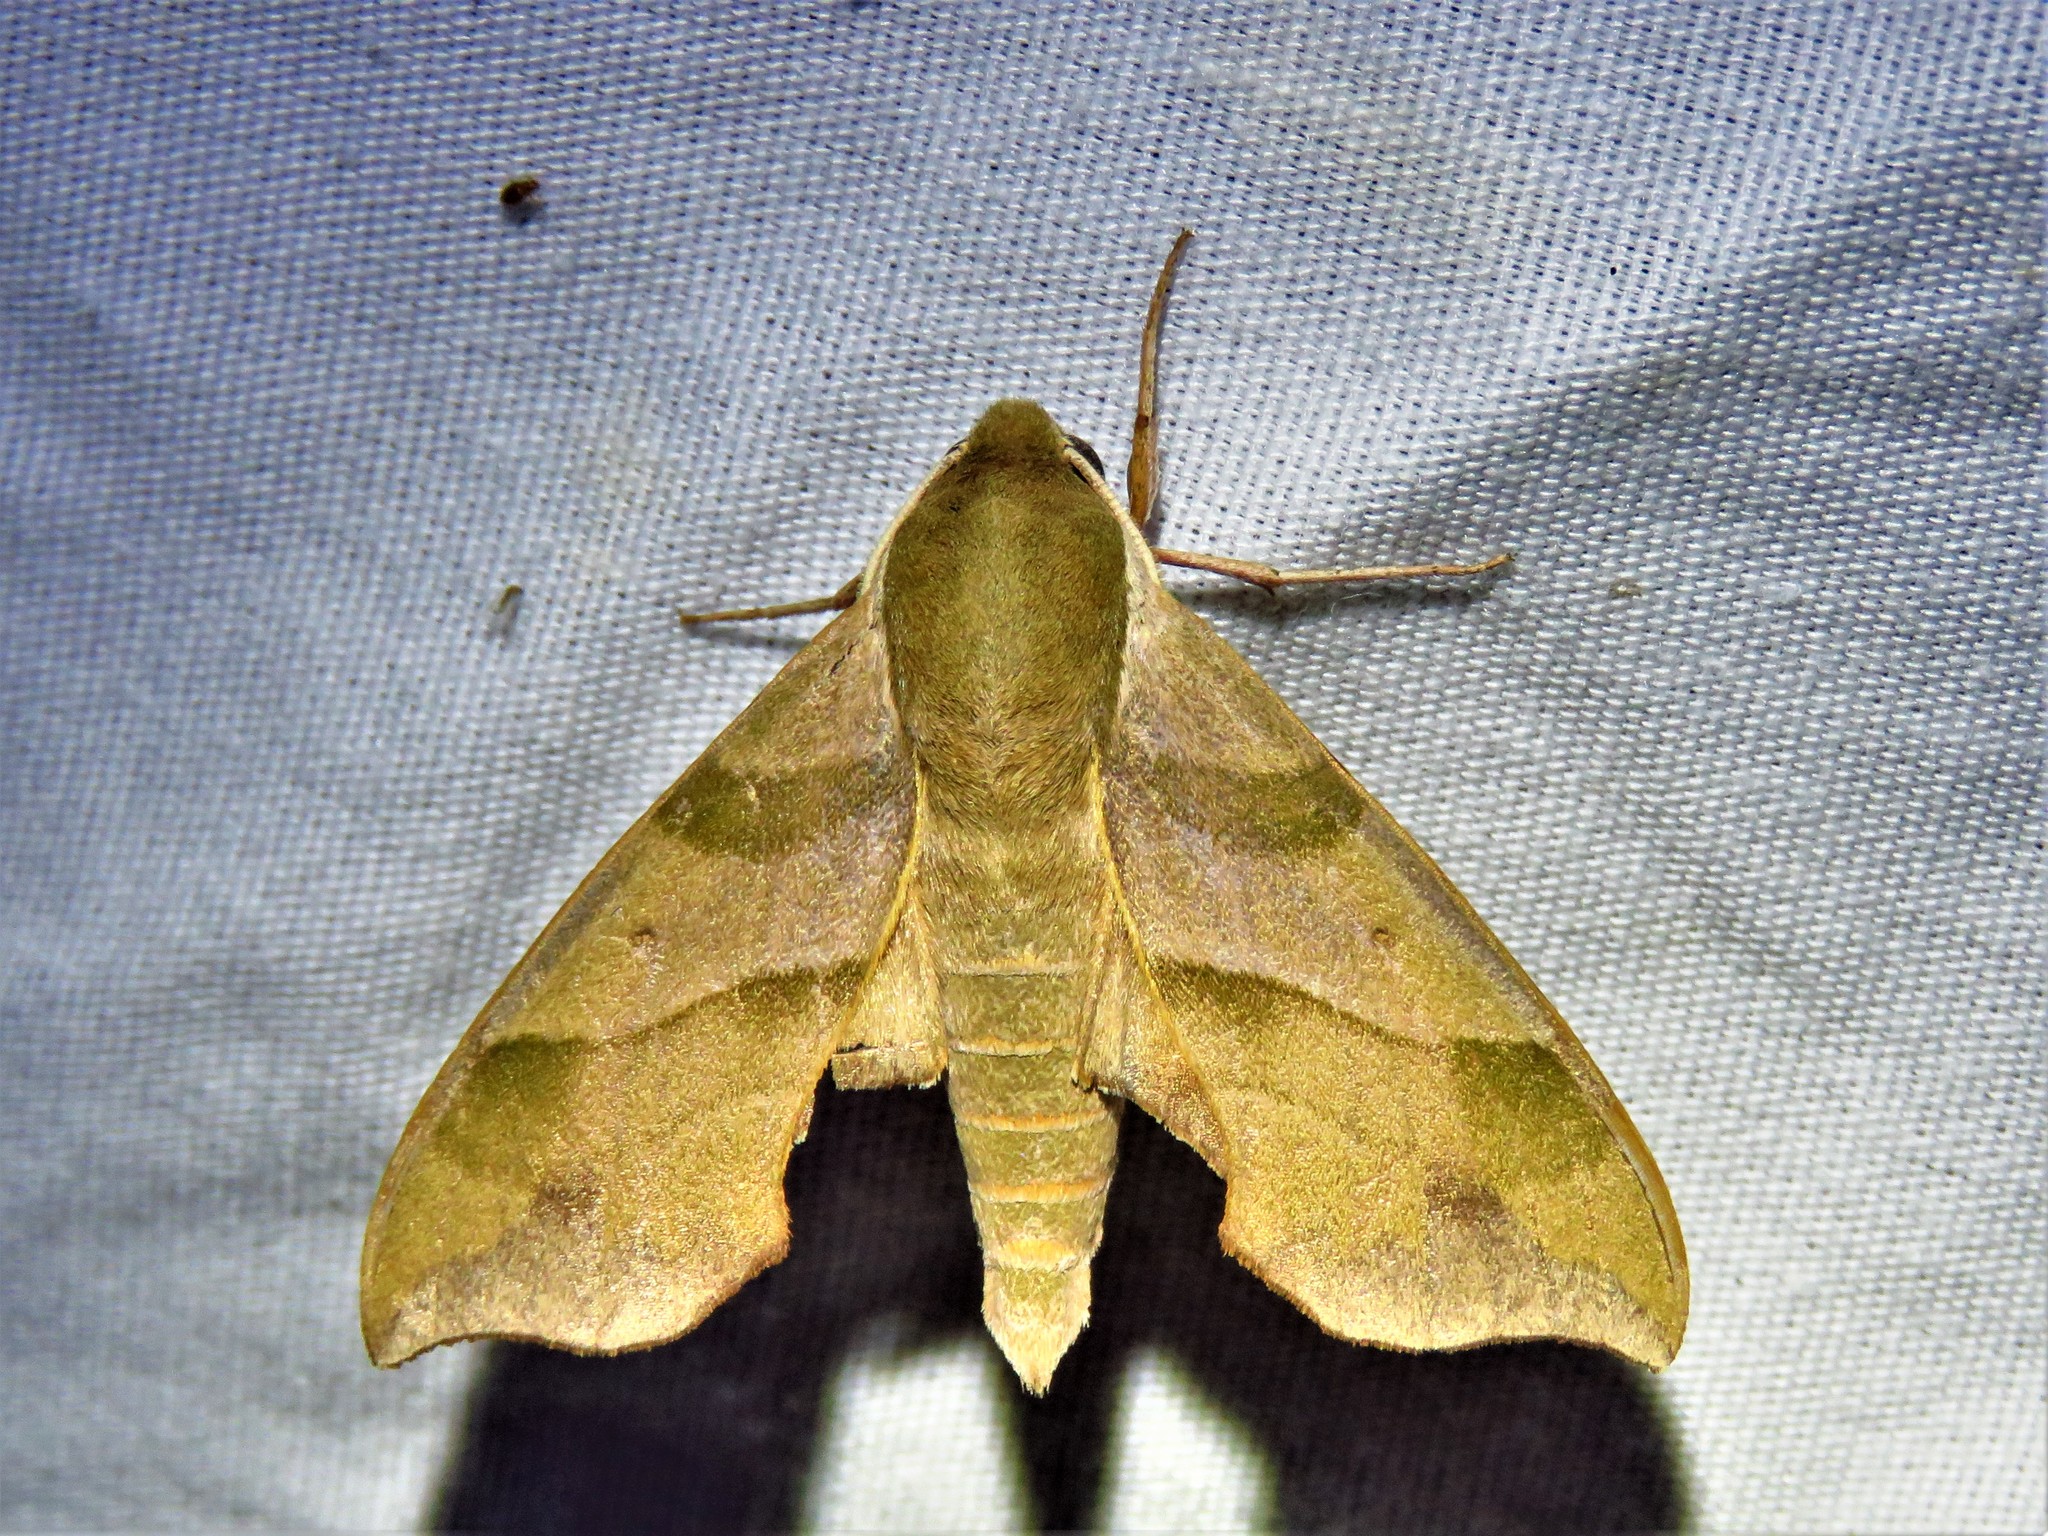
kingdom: Animalia
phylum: Arthropoda
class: Insecta
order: Lepidoptera
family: Sphingidae
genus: Darapsa
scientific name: Darapsa myron
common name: Hog sphinx
